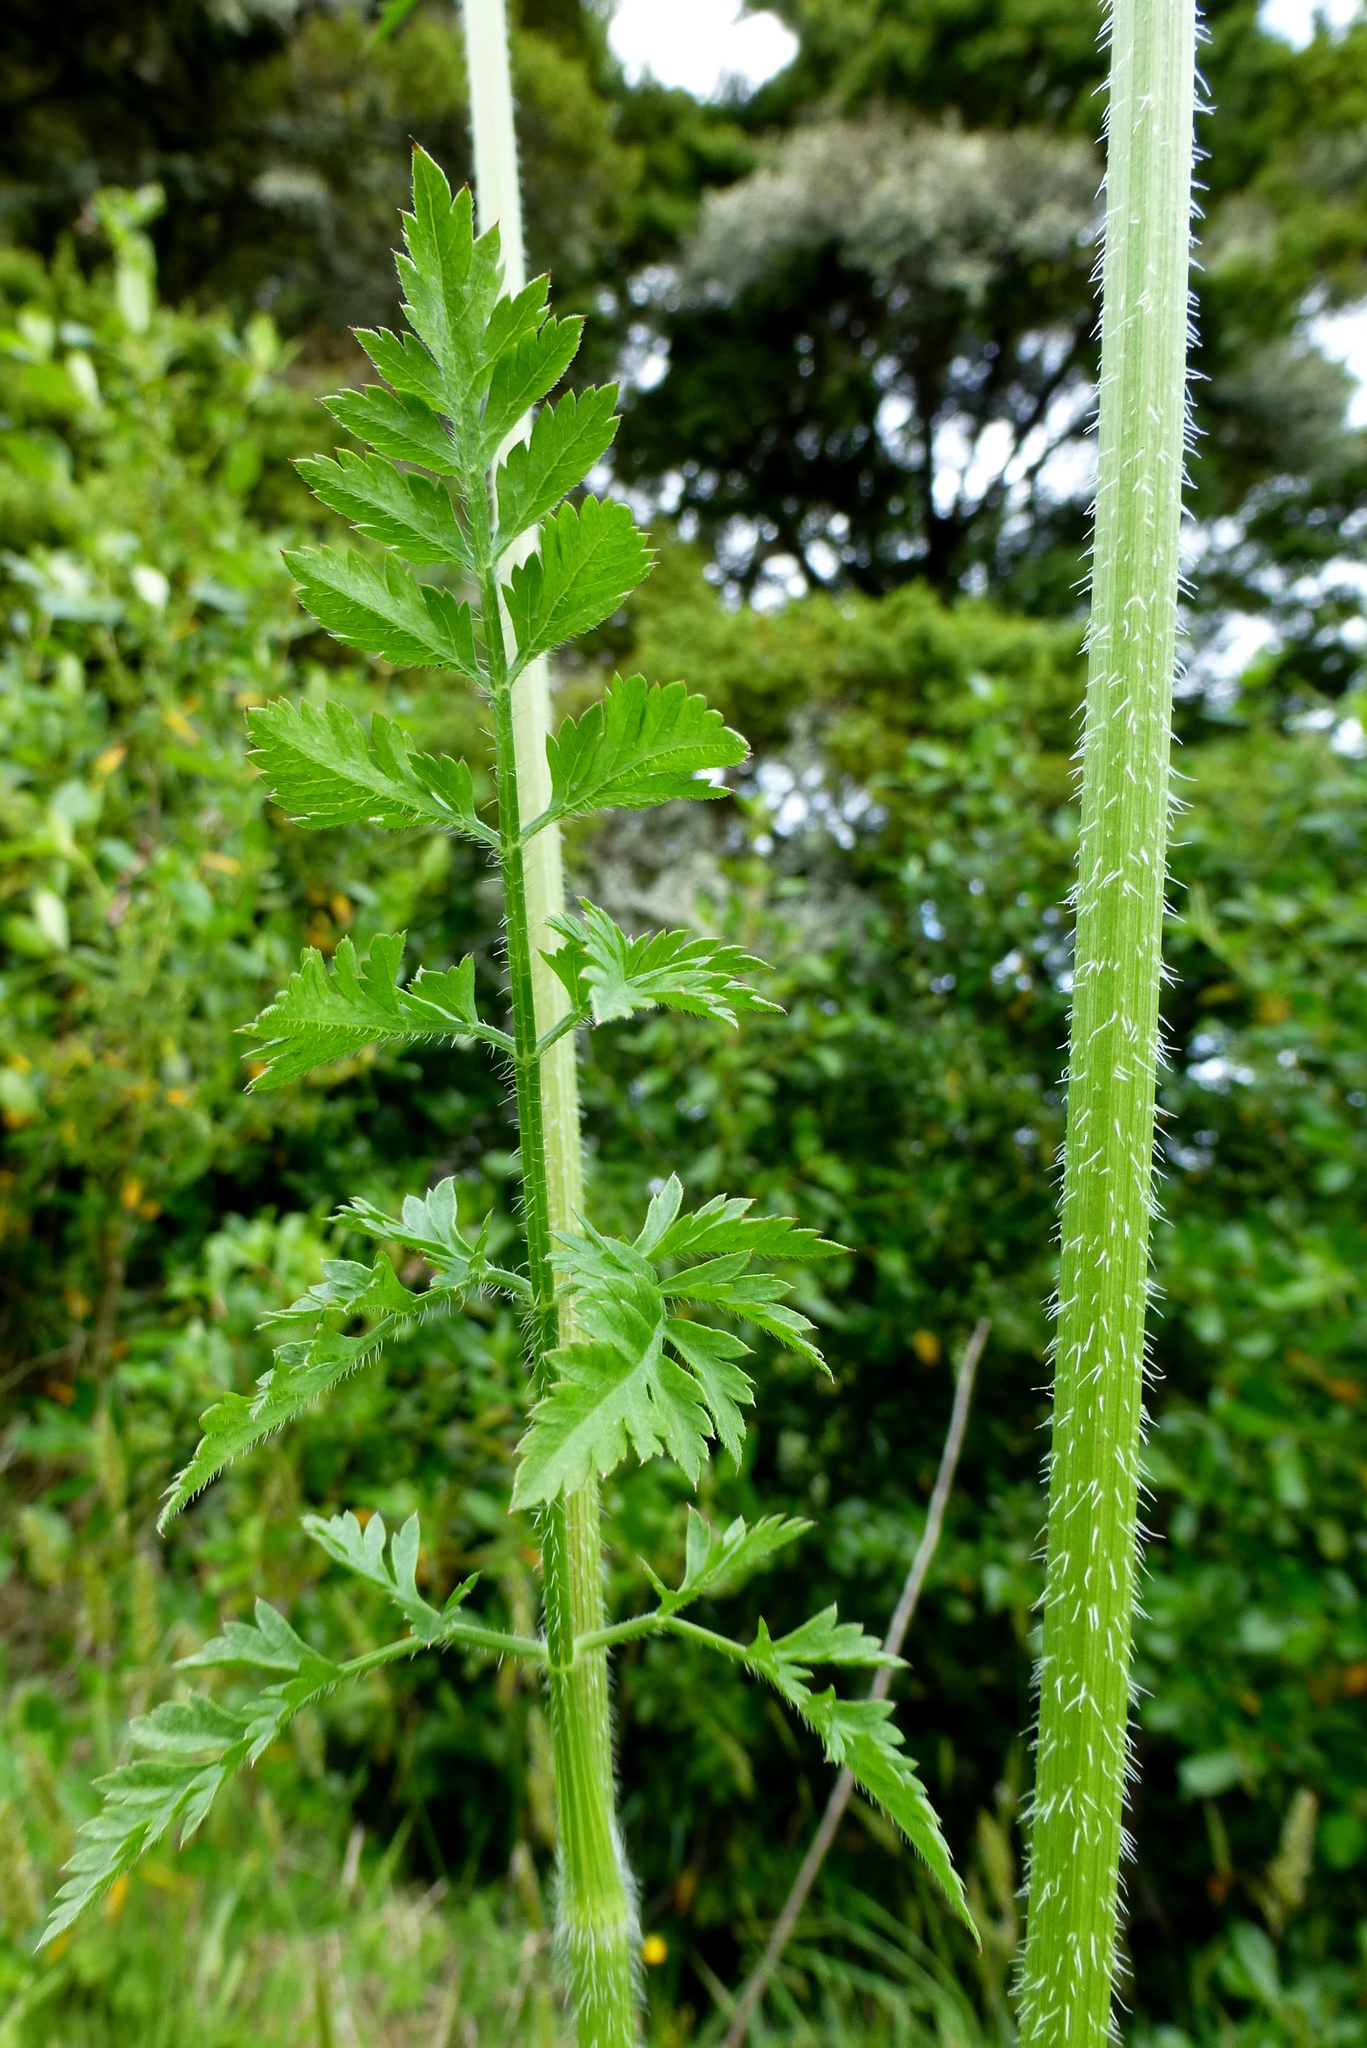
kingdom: Plantae
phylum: Tracheophyta
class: Magnoliopsida
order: Apiales
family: Apiaceae
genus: Daucus
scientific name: Daucus carota
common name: Wild carrot
